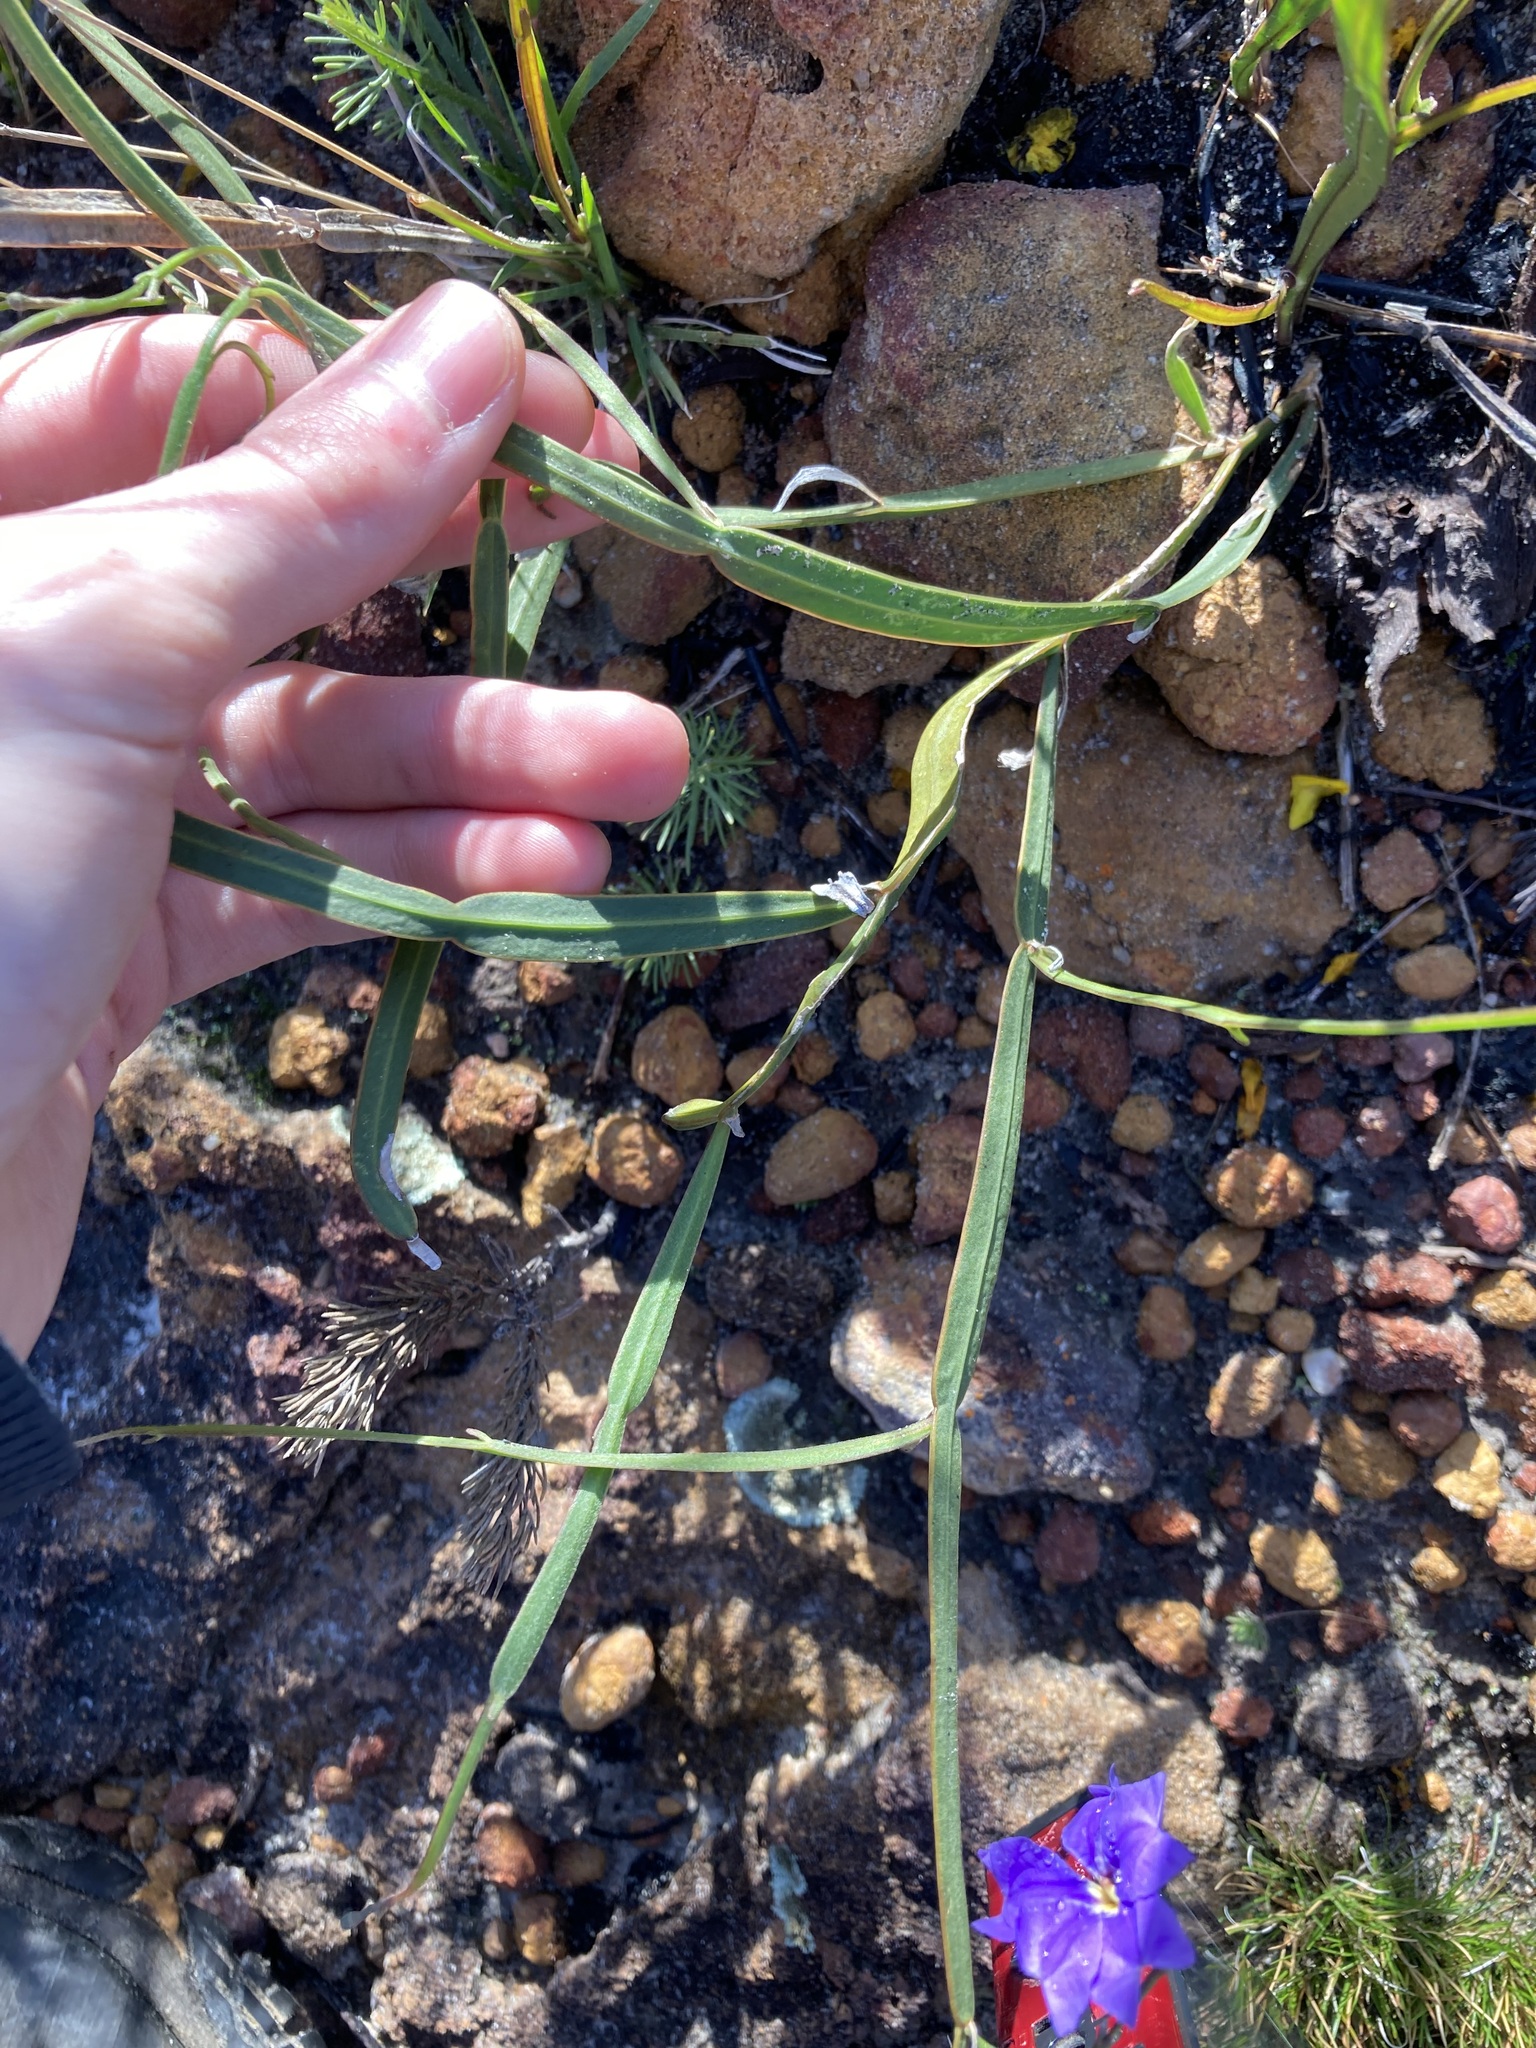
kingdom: Plantae
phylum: Tracheophyta
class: Magnoliopsida
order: Asterales
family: Goodeniaceae
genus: Dampiera
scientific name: Dampiera lindleyi
